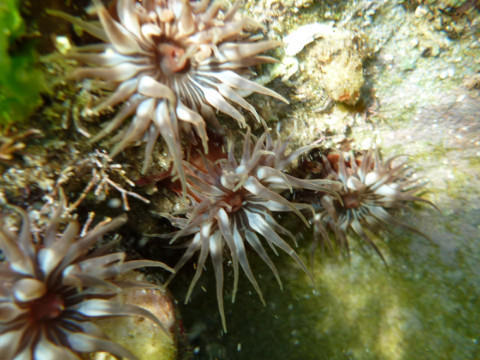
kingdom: Animalia
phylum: Cnidaria
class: Anthozoa
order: Actiniaria
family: Actiniidae
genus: Anemonia
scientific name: Anemonia natalensis
